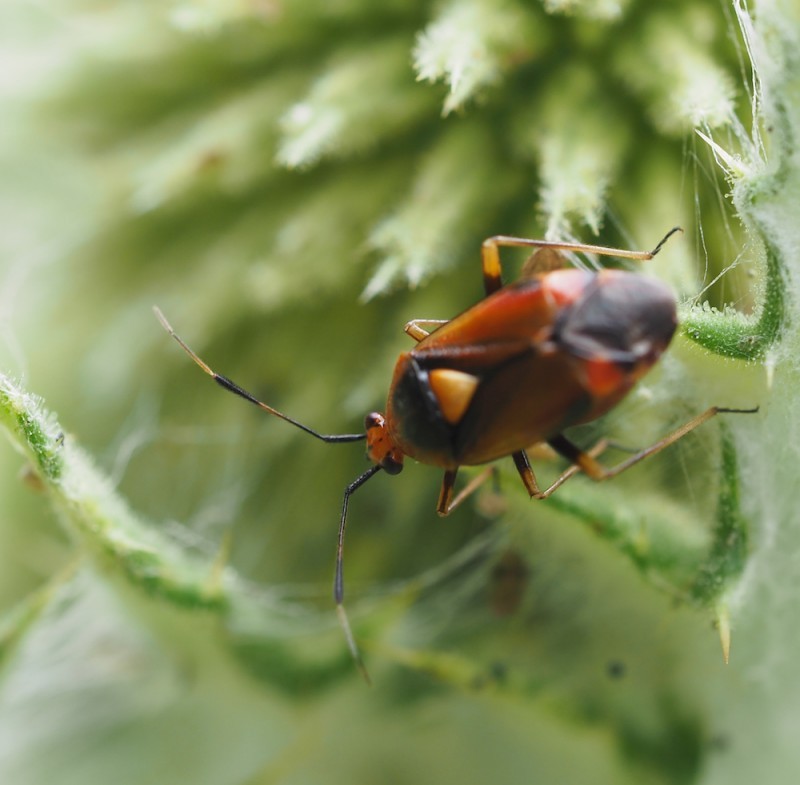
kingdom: Animalia
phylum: Arthropoda
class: Insecta
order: Hemiptera
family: Miridae
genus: Deraeocoris
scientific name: Deraeocoris ruber
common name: Plant bug
